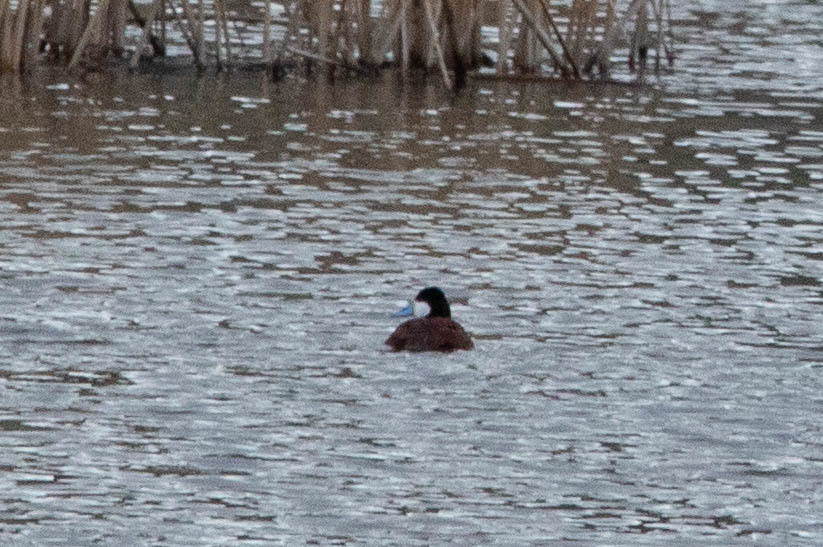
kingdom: Animalia
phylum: Chordata
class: Aves
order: Anseriformes
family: Anatidae
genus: Oxyura
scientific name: Oxyura jamaicensis
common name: Ruddy duck
